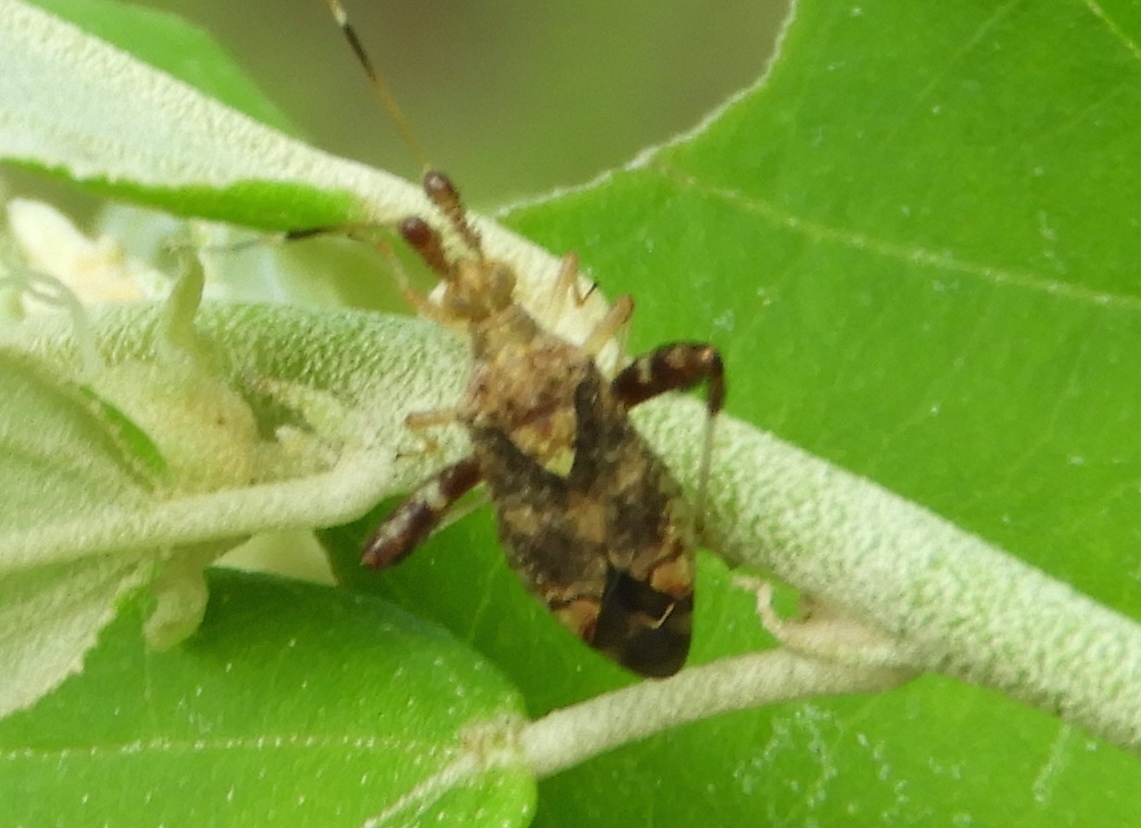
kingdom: Animalia
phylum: Arthropoda
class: Insecta
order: Hemiptera
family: Miridae
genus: Neurocolpus
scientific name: Neurocolpus
